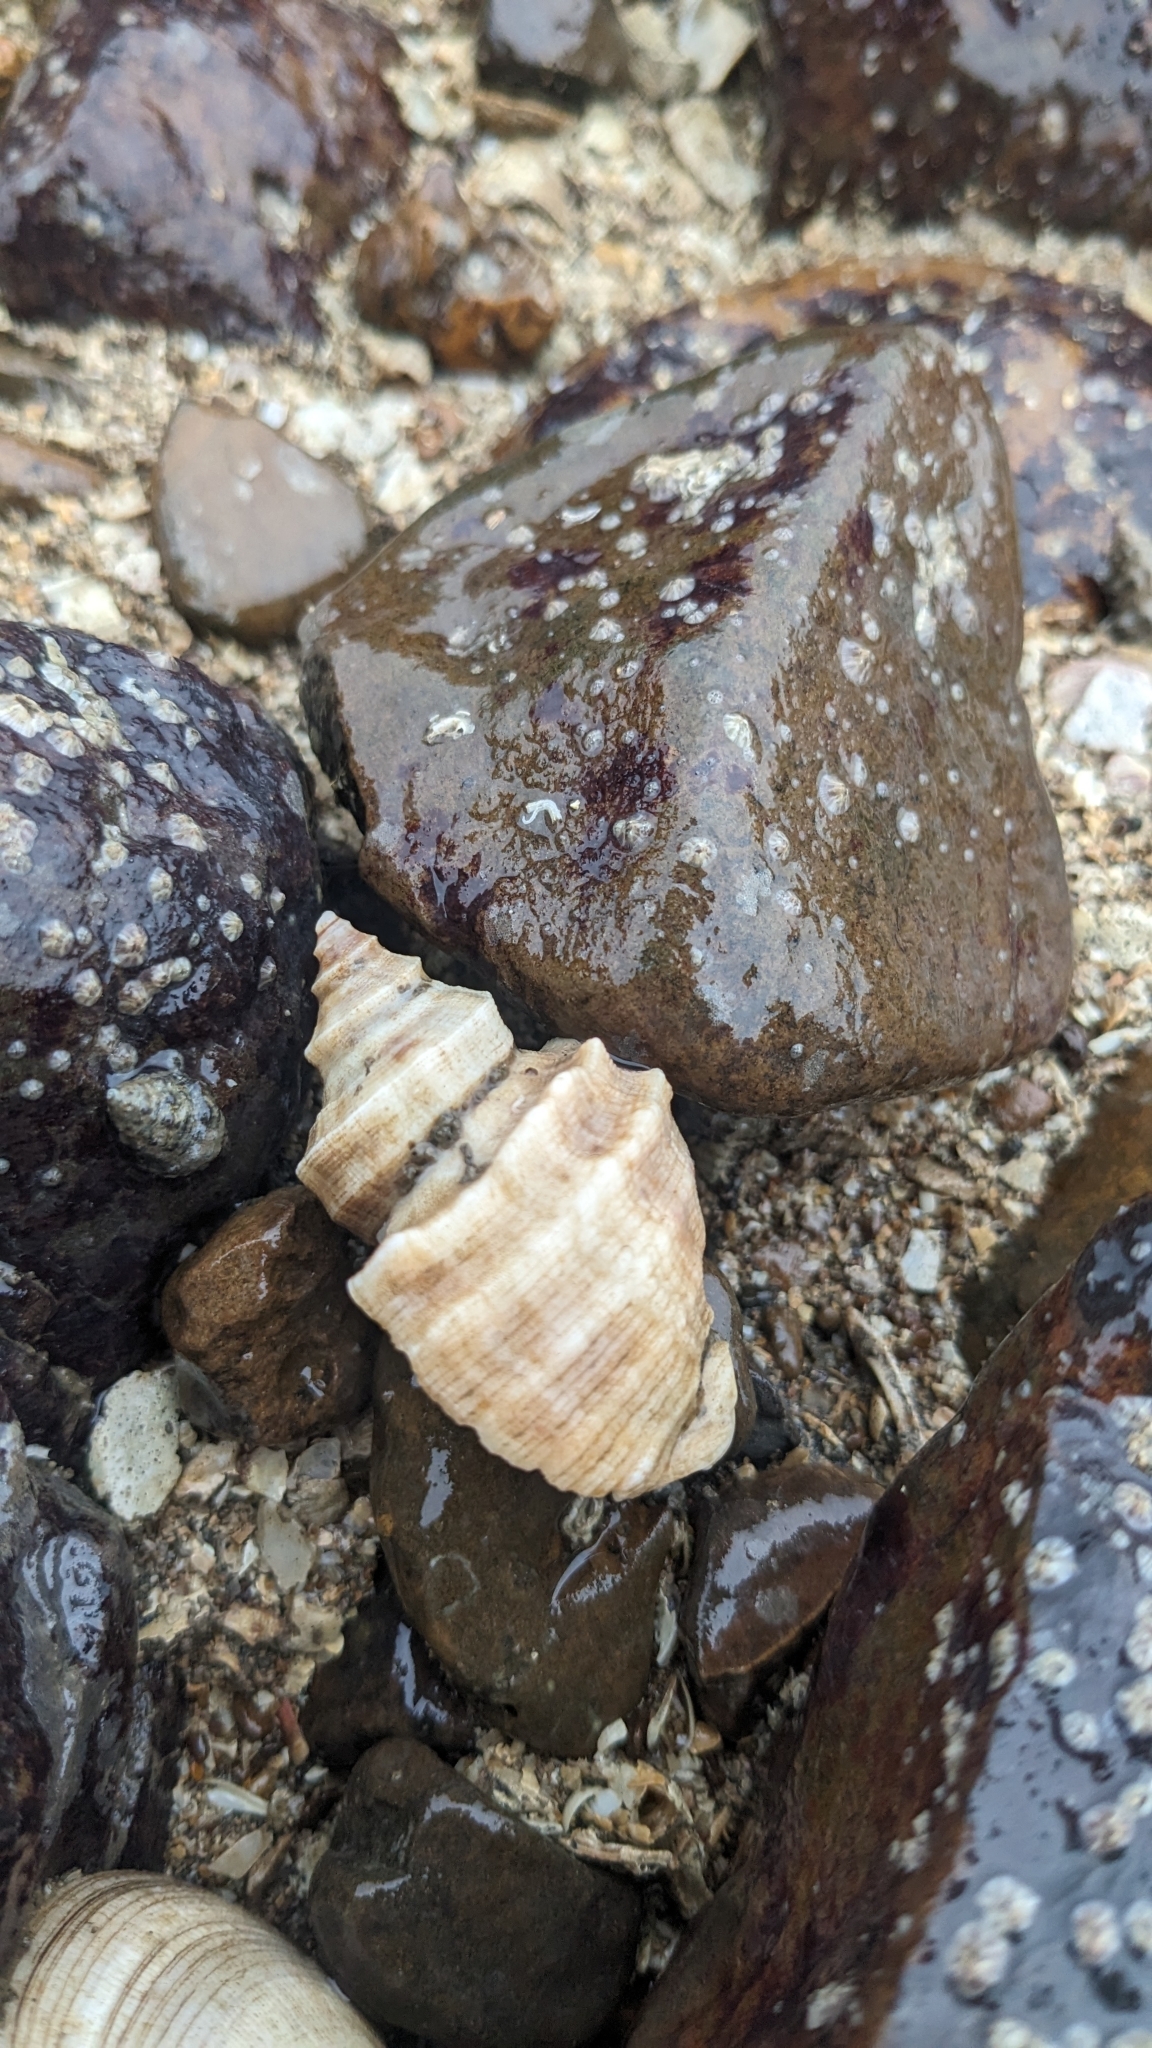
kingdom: Animalia
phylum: Mollusca
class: Gastropoda
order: Neogastropoda
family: Muricidae
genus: Indothais
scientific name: Indothais lacera
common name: Carinate rock shell
